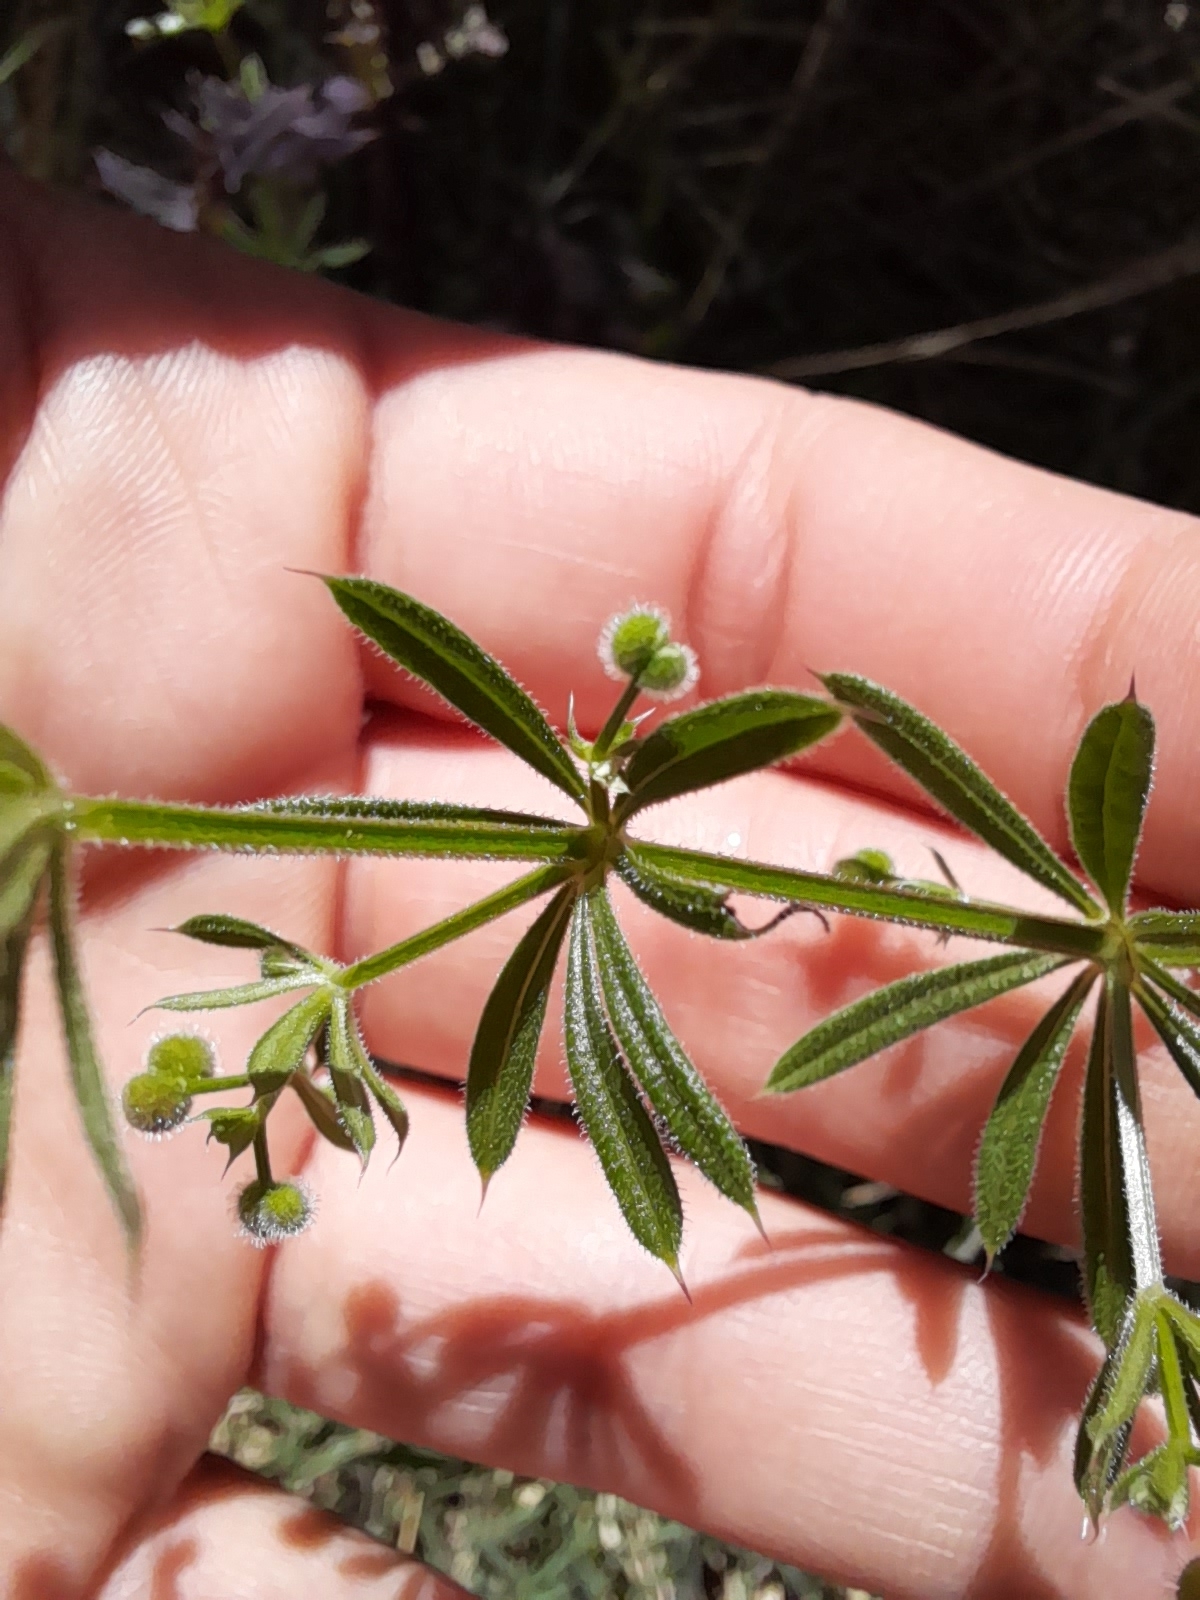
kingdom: Plantae
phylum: Tracheophyta
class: Magnoliopsida
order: Gentianales
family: Rubiaceae
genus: Galium
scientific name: Galium aparine
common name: Cleavers
